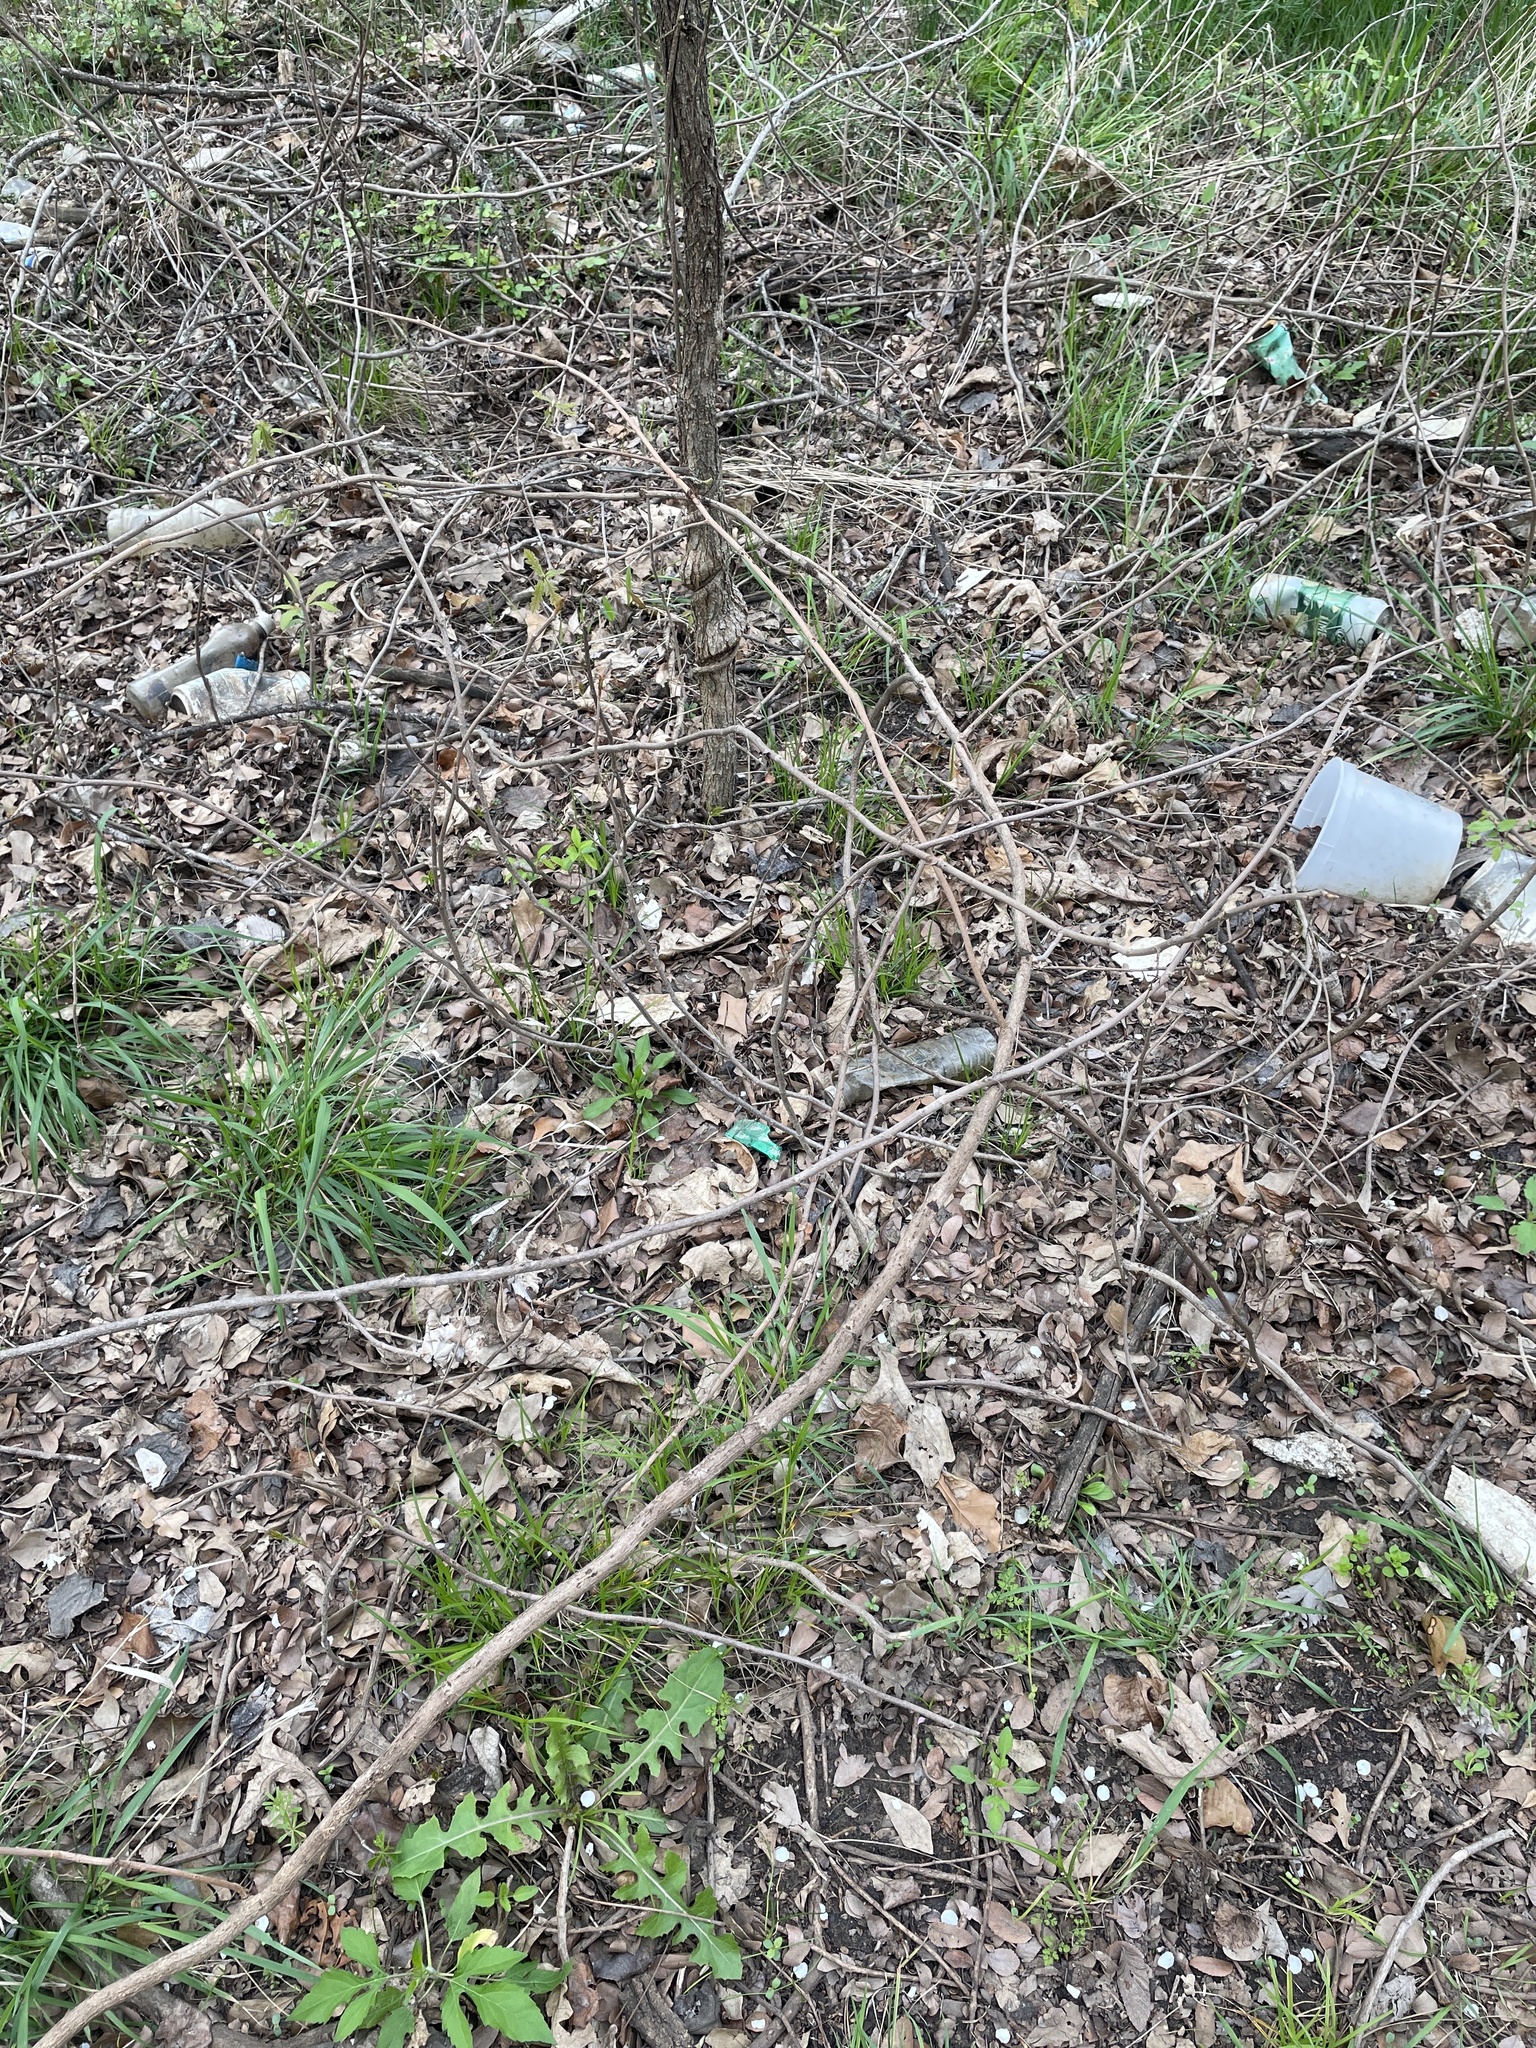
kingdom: Plantae
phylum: Tracheophyta
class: Magnoliopsida
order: Sapindales
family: Anacardiaceae
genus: Toxicodendron
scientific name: Toxicodendron radicans
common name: Poison ivy
